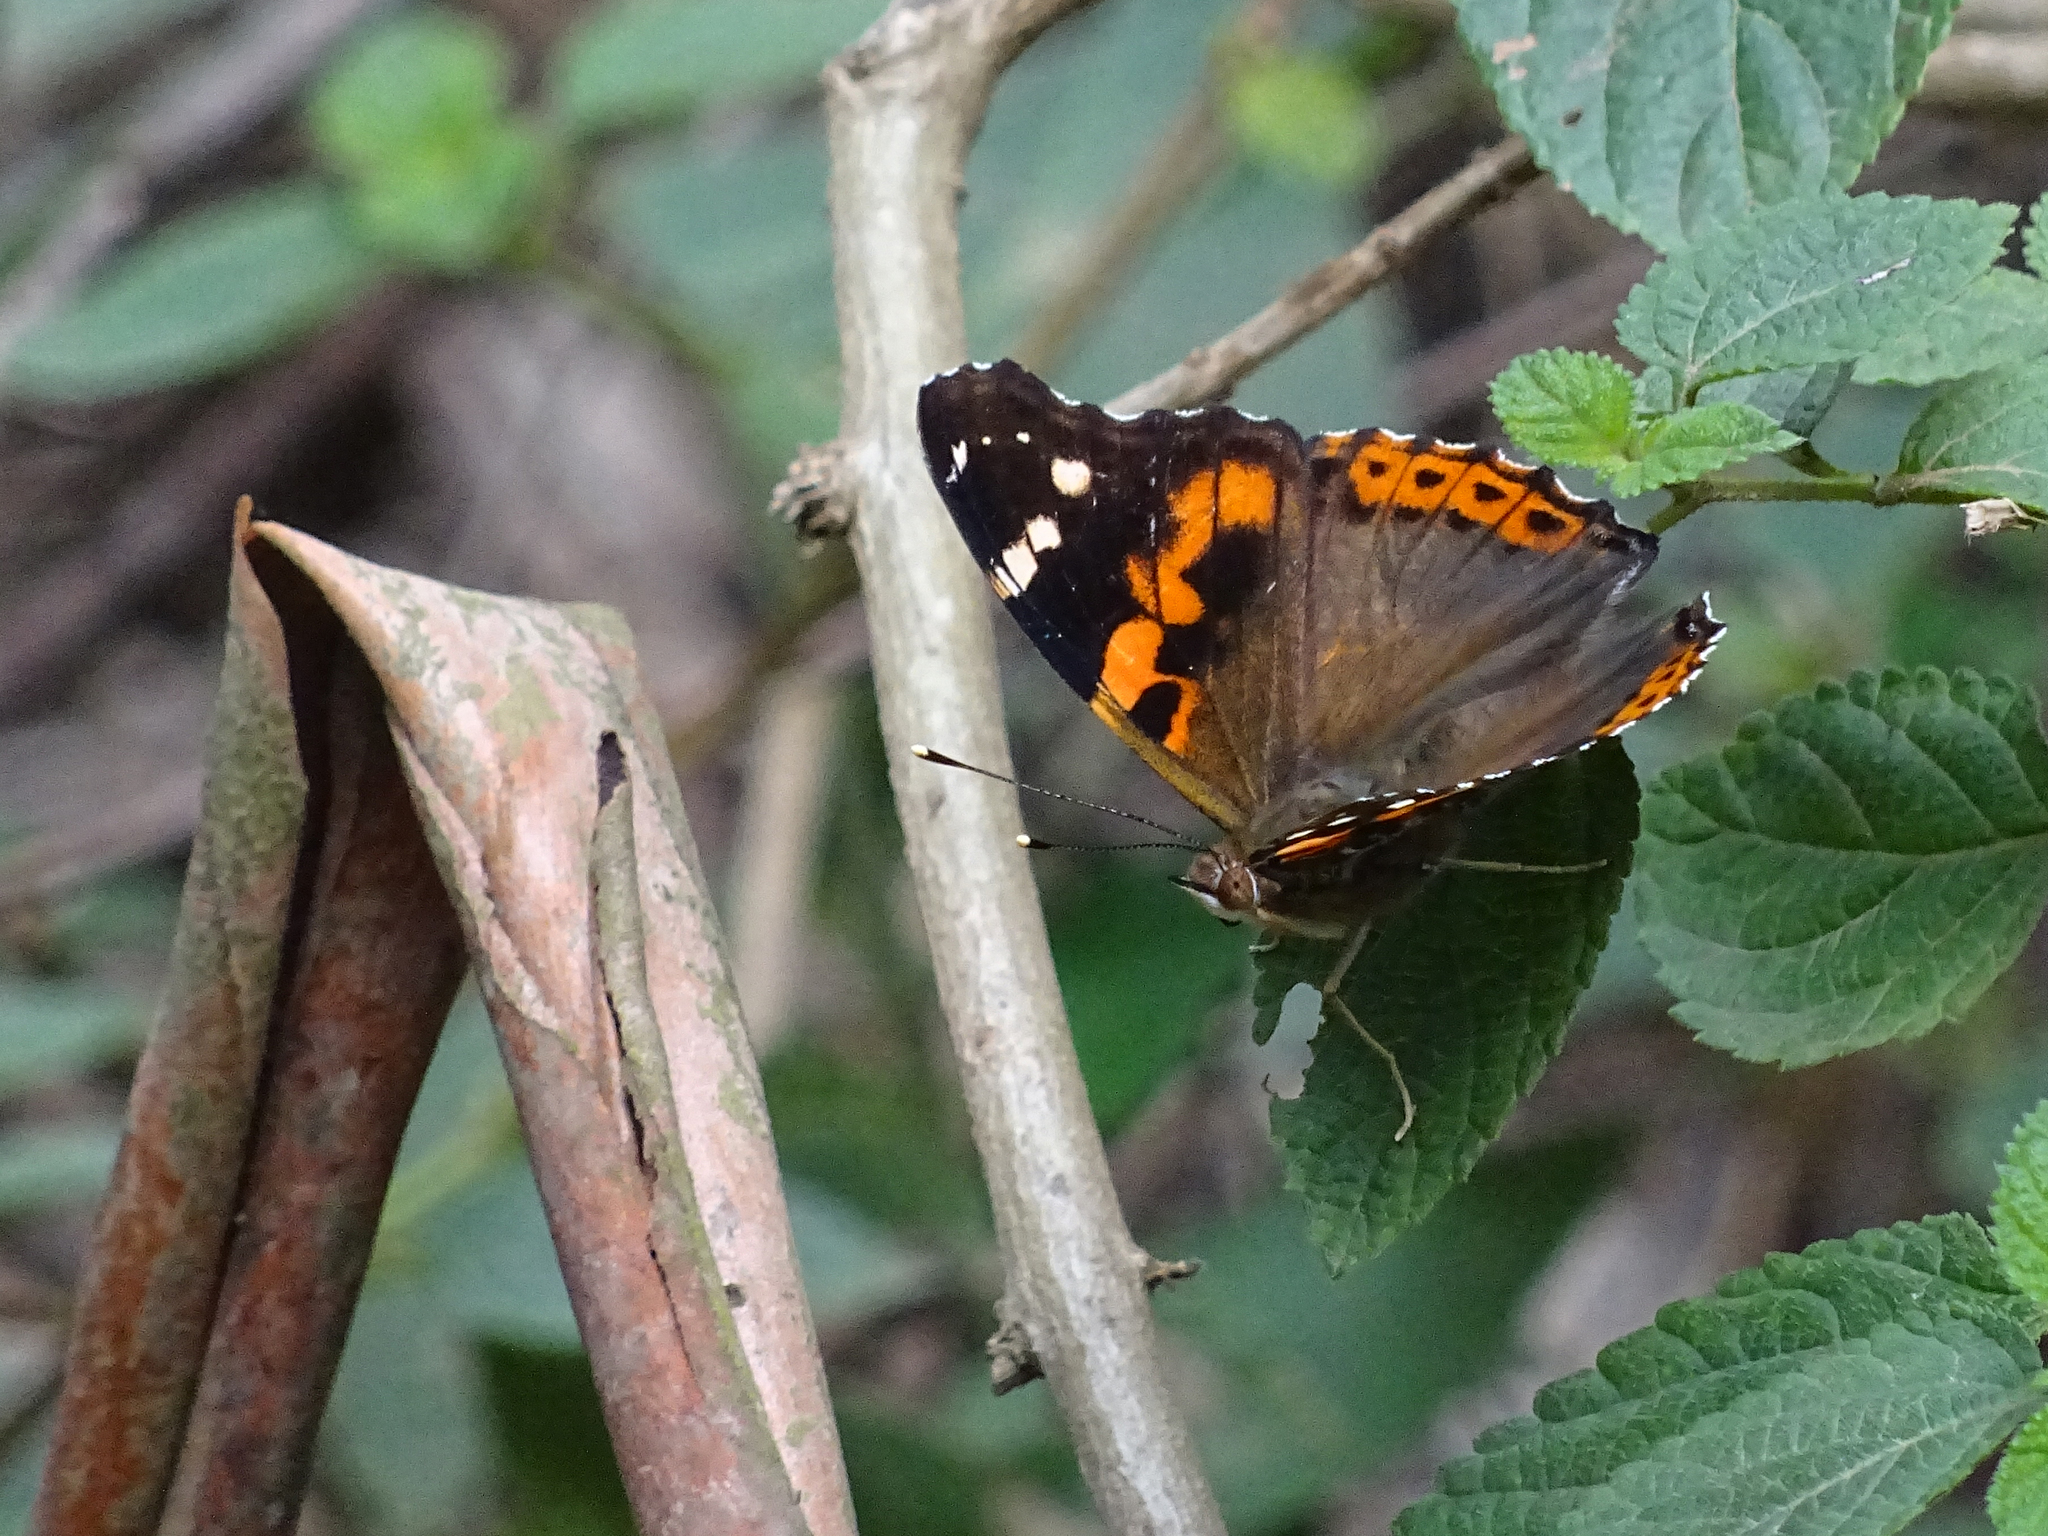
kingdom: Animalia
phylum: Arthropoda
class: Insecta
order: Lepidoptera
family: Nymphalidae
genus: Vanessa
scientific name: Vanessa indica
